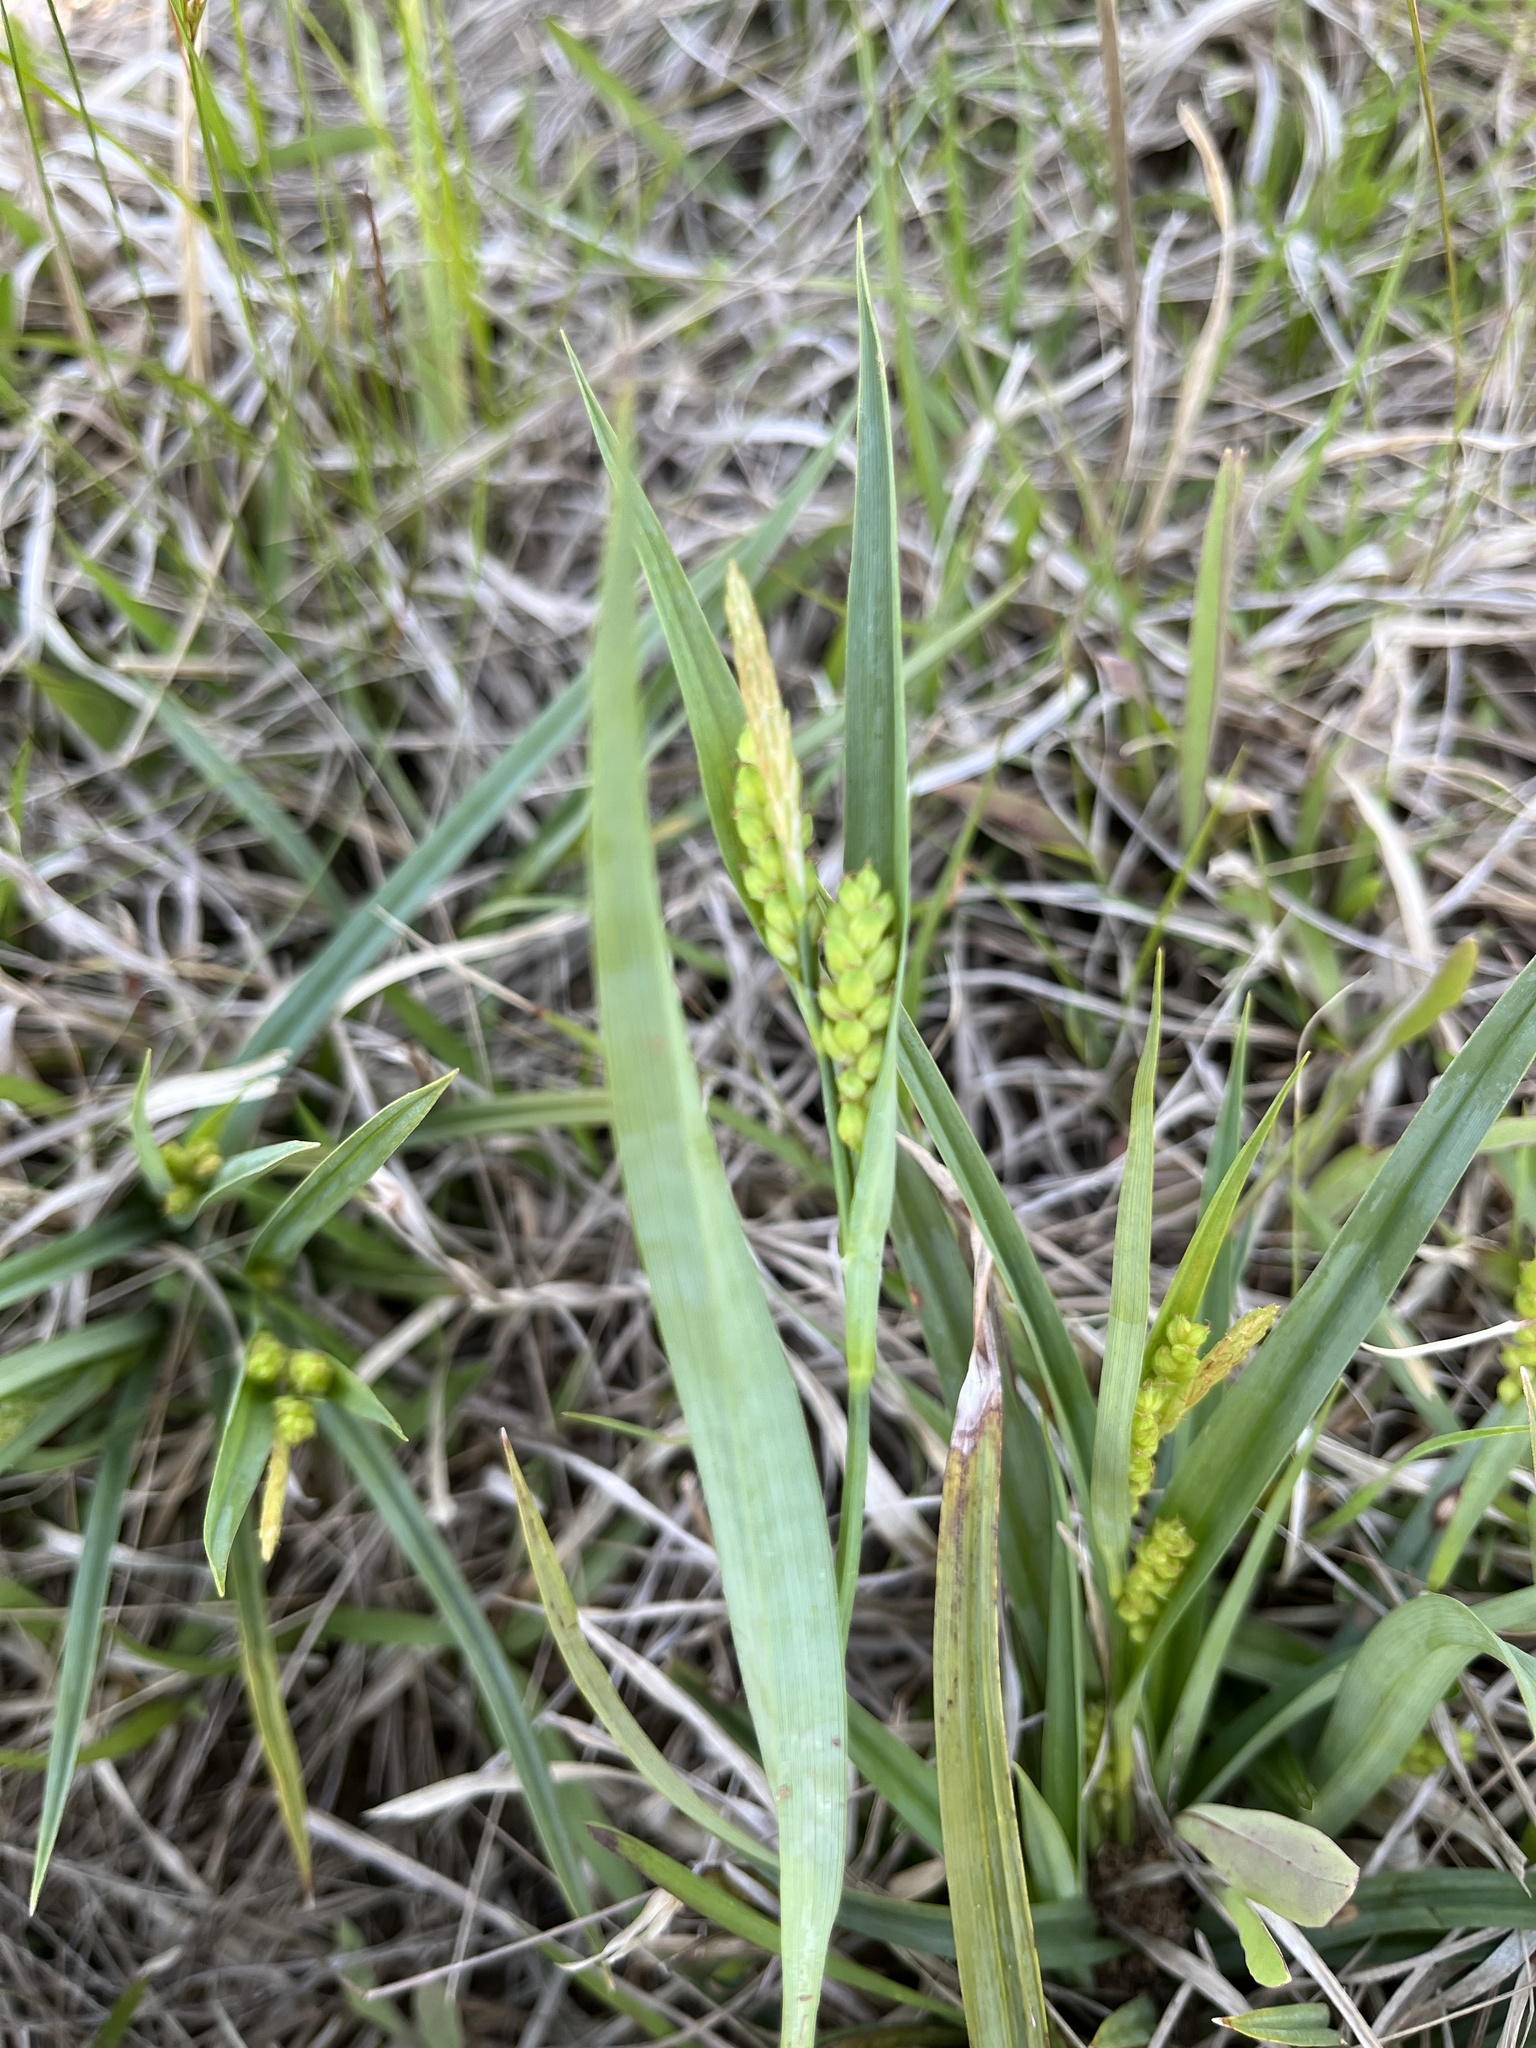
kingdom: Plantae
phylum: Tracheophyta
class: Liliopsida
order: Poales
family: Cyperaceae
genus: Carex
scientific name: Carex glaucodea
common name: Blue sedge
